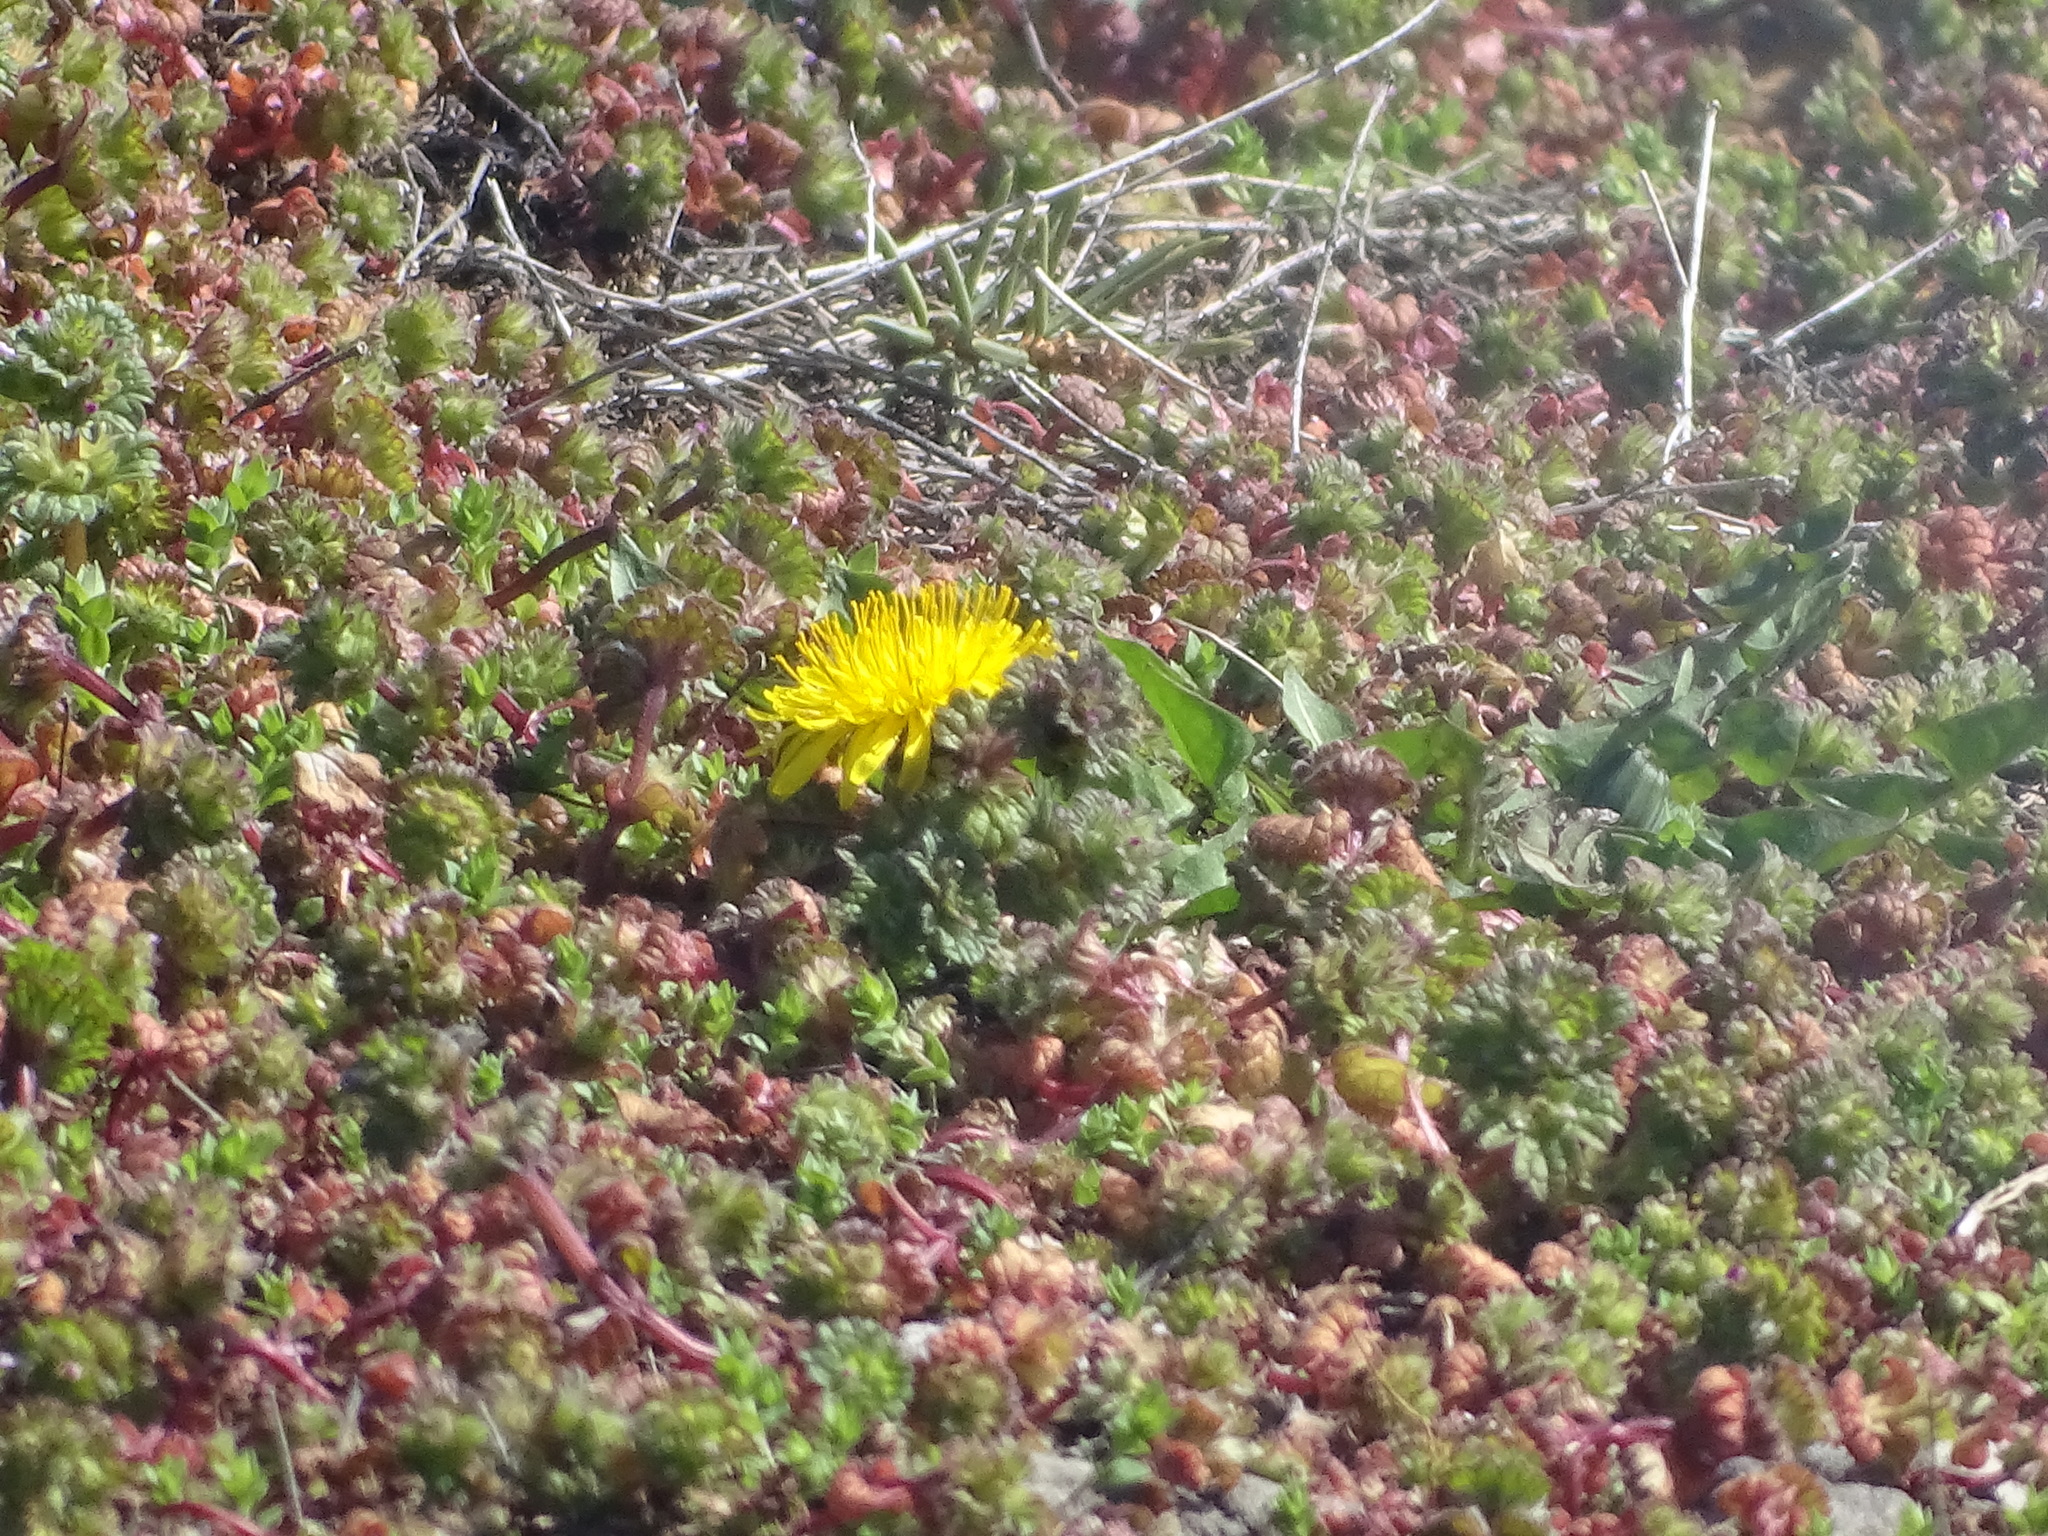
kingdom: Plantae
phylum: Tracheophyta
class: Magnoliopsida
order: Asterales
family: Asteraceae
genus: Taraxacum
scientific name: Taraxacum officinale
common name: Common dandelion
